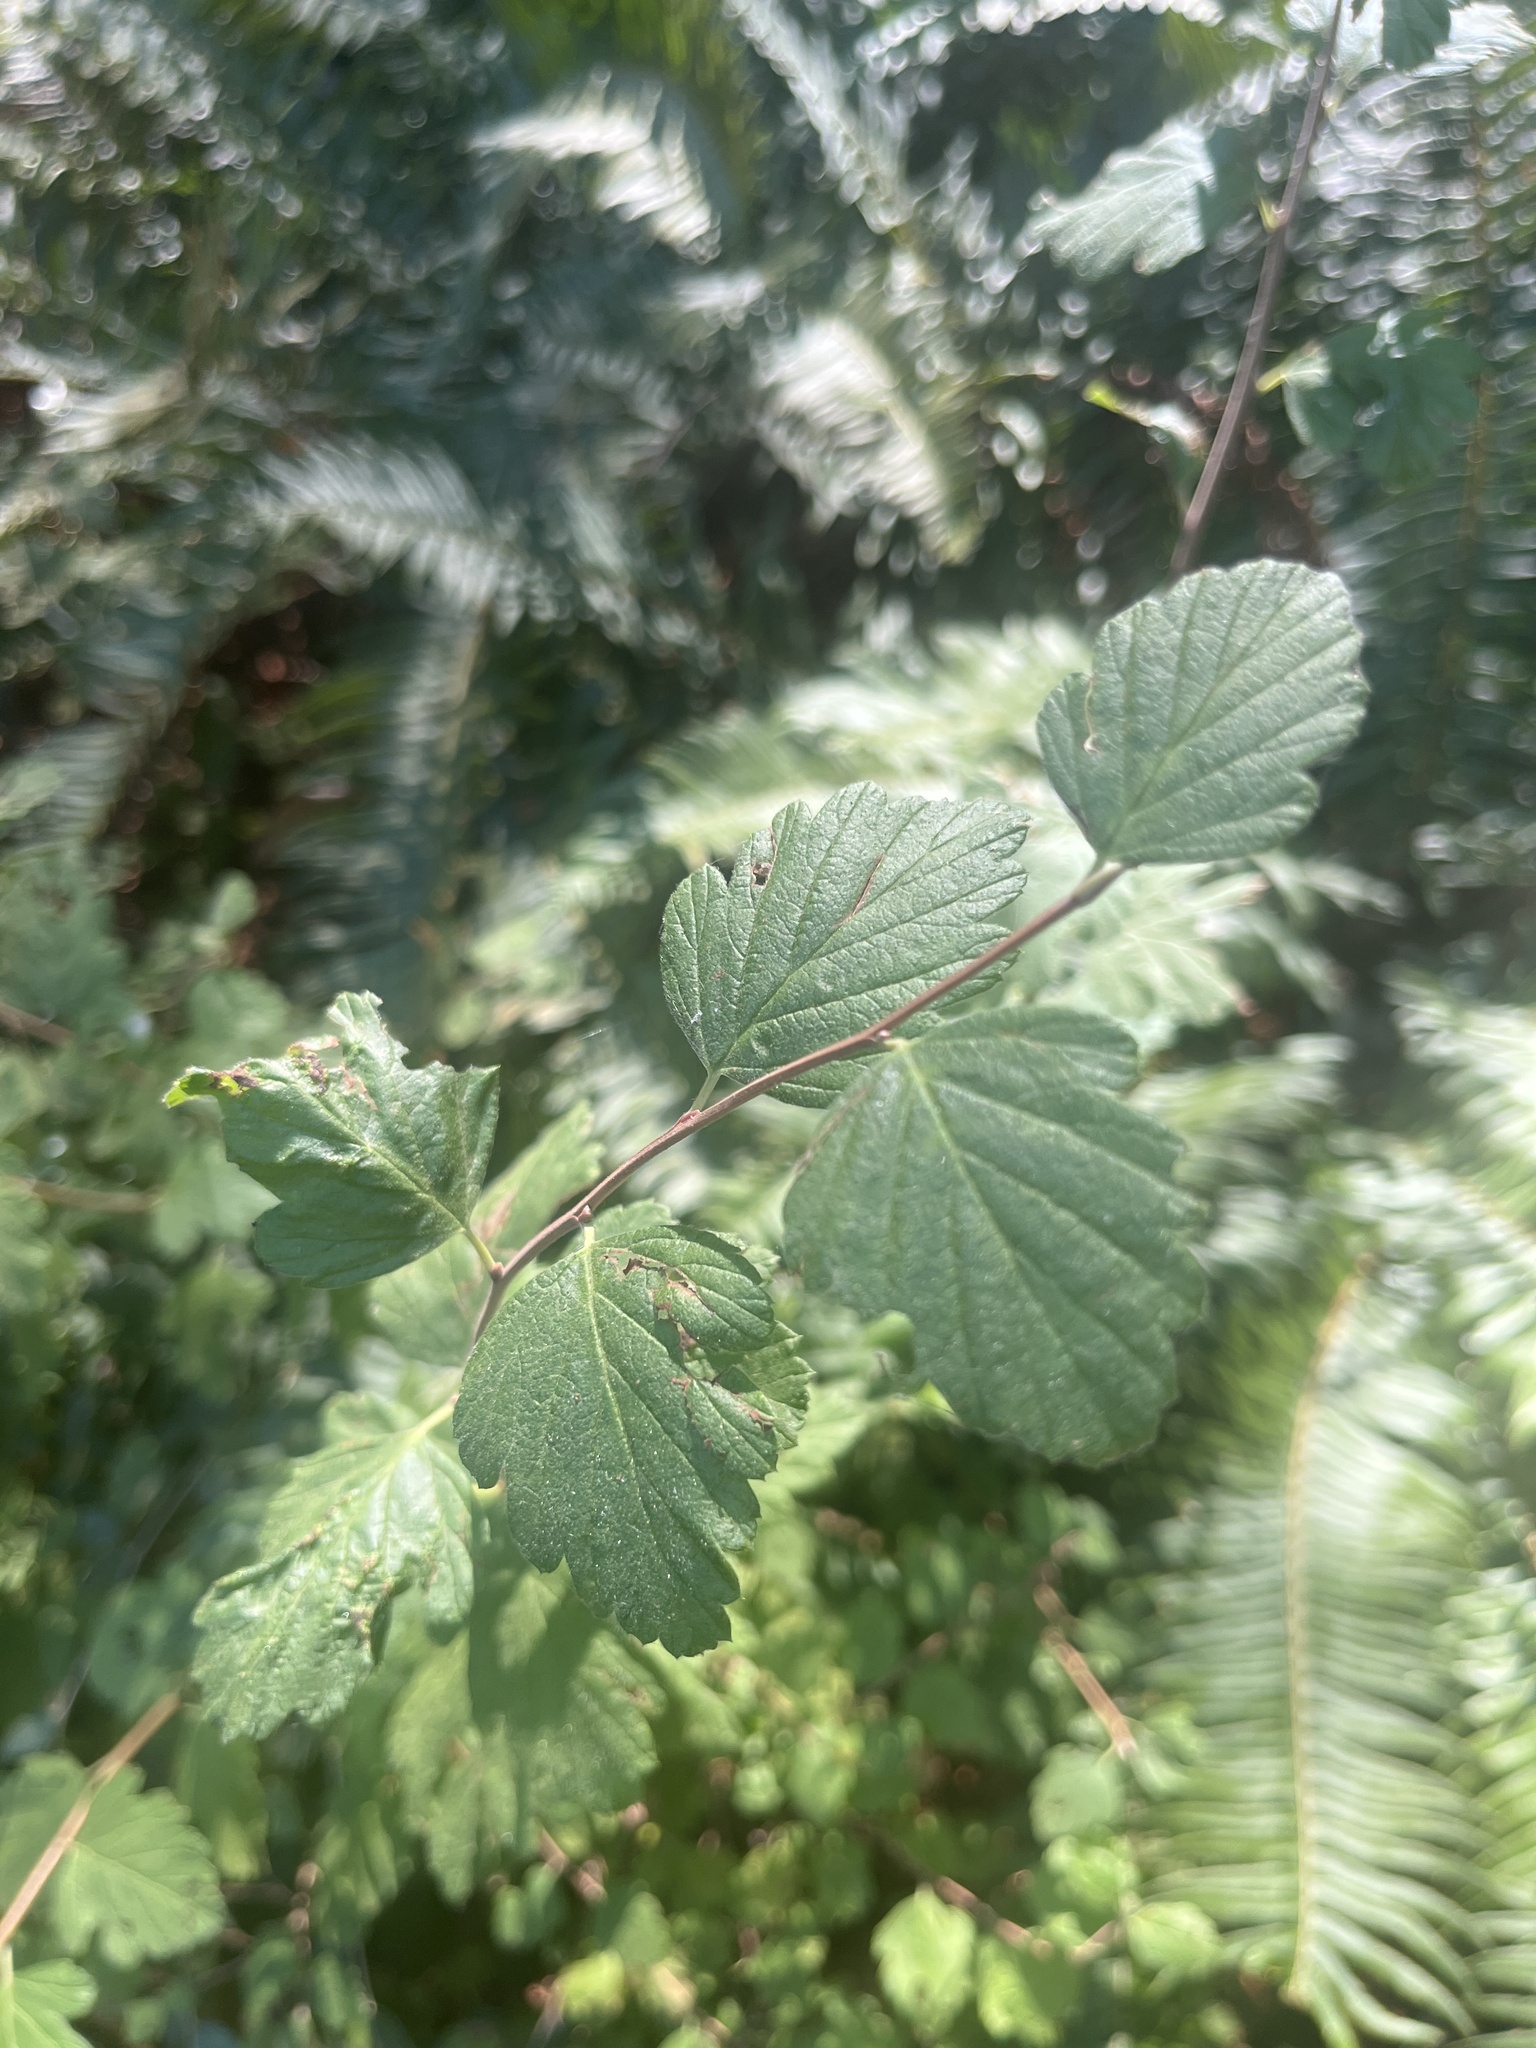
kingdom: Plantae
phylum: Tracheophyta
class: Magnoliopsida
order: Rosales
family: Rosaceae
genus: Holodiscus
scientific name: Holodiscus discolor
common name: Oceanspray
